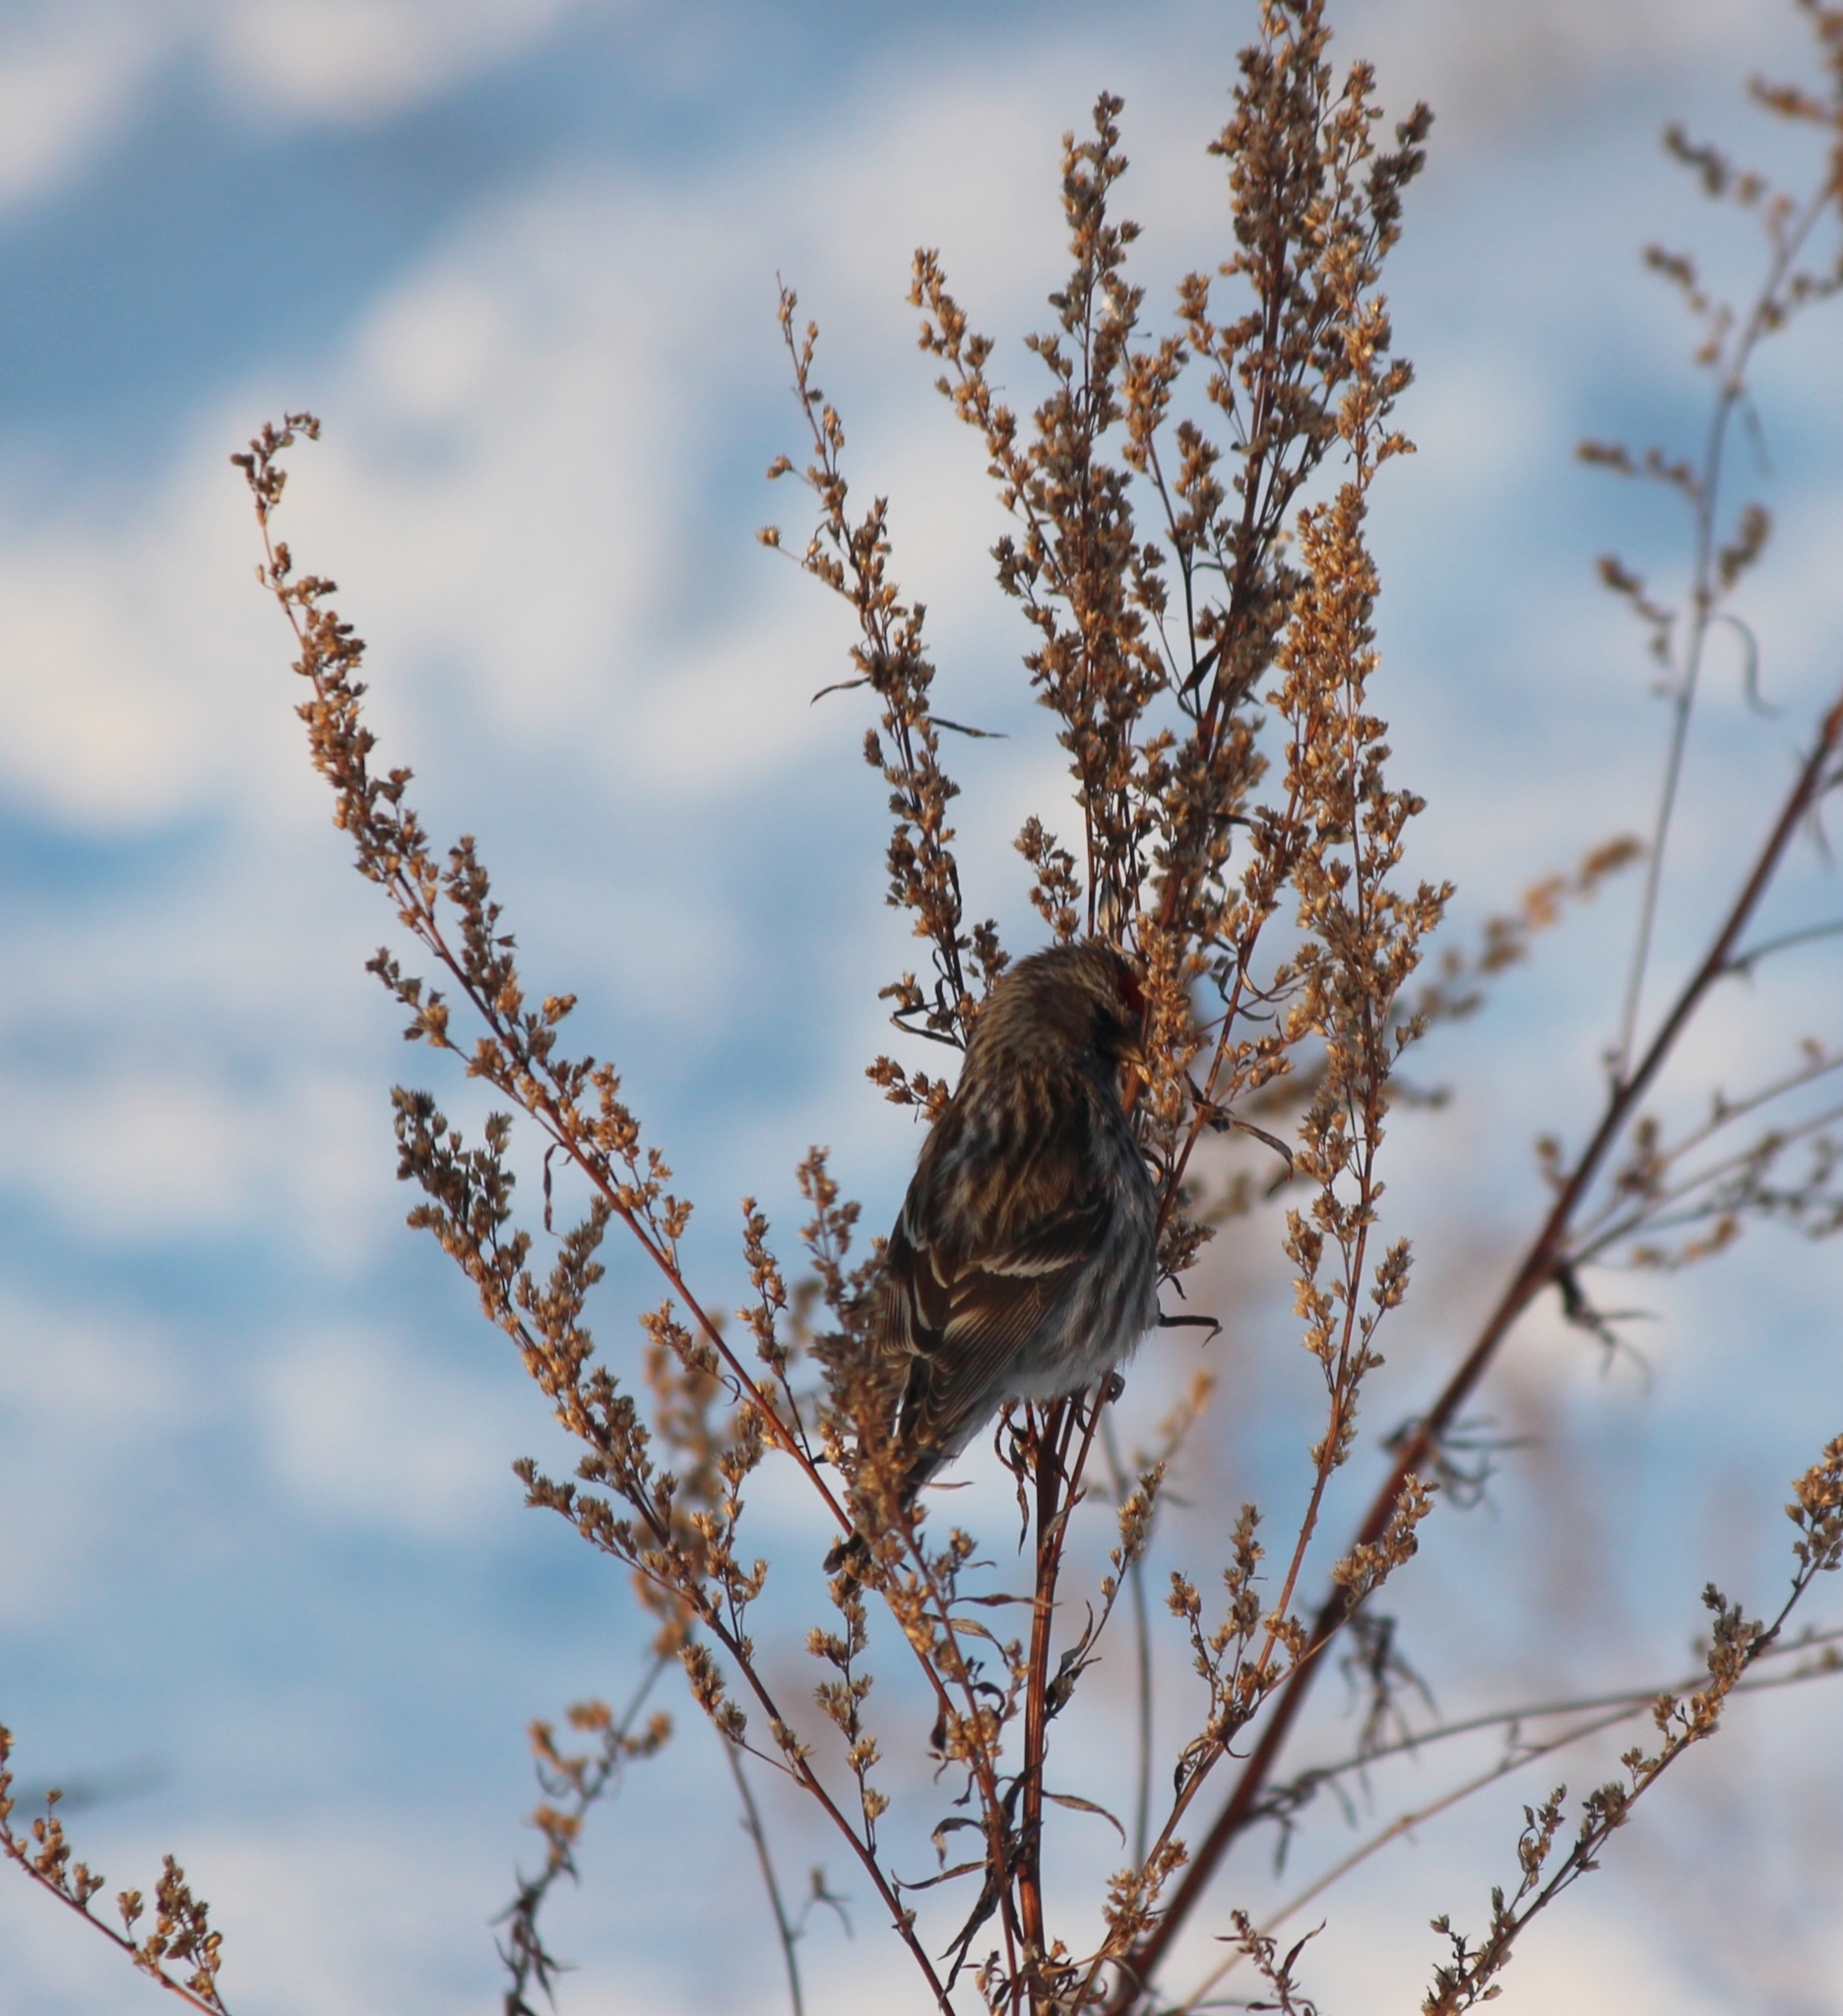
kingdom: Animalia
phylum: Chordata
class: Aves
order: Passeriformes
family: Fringillidae
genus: Acanthis
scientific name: Acanthis flammea
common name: Common redpoll
